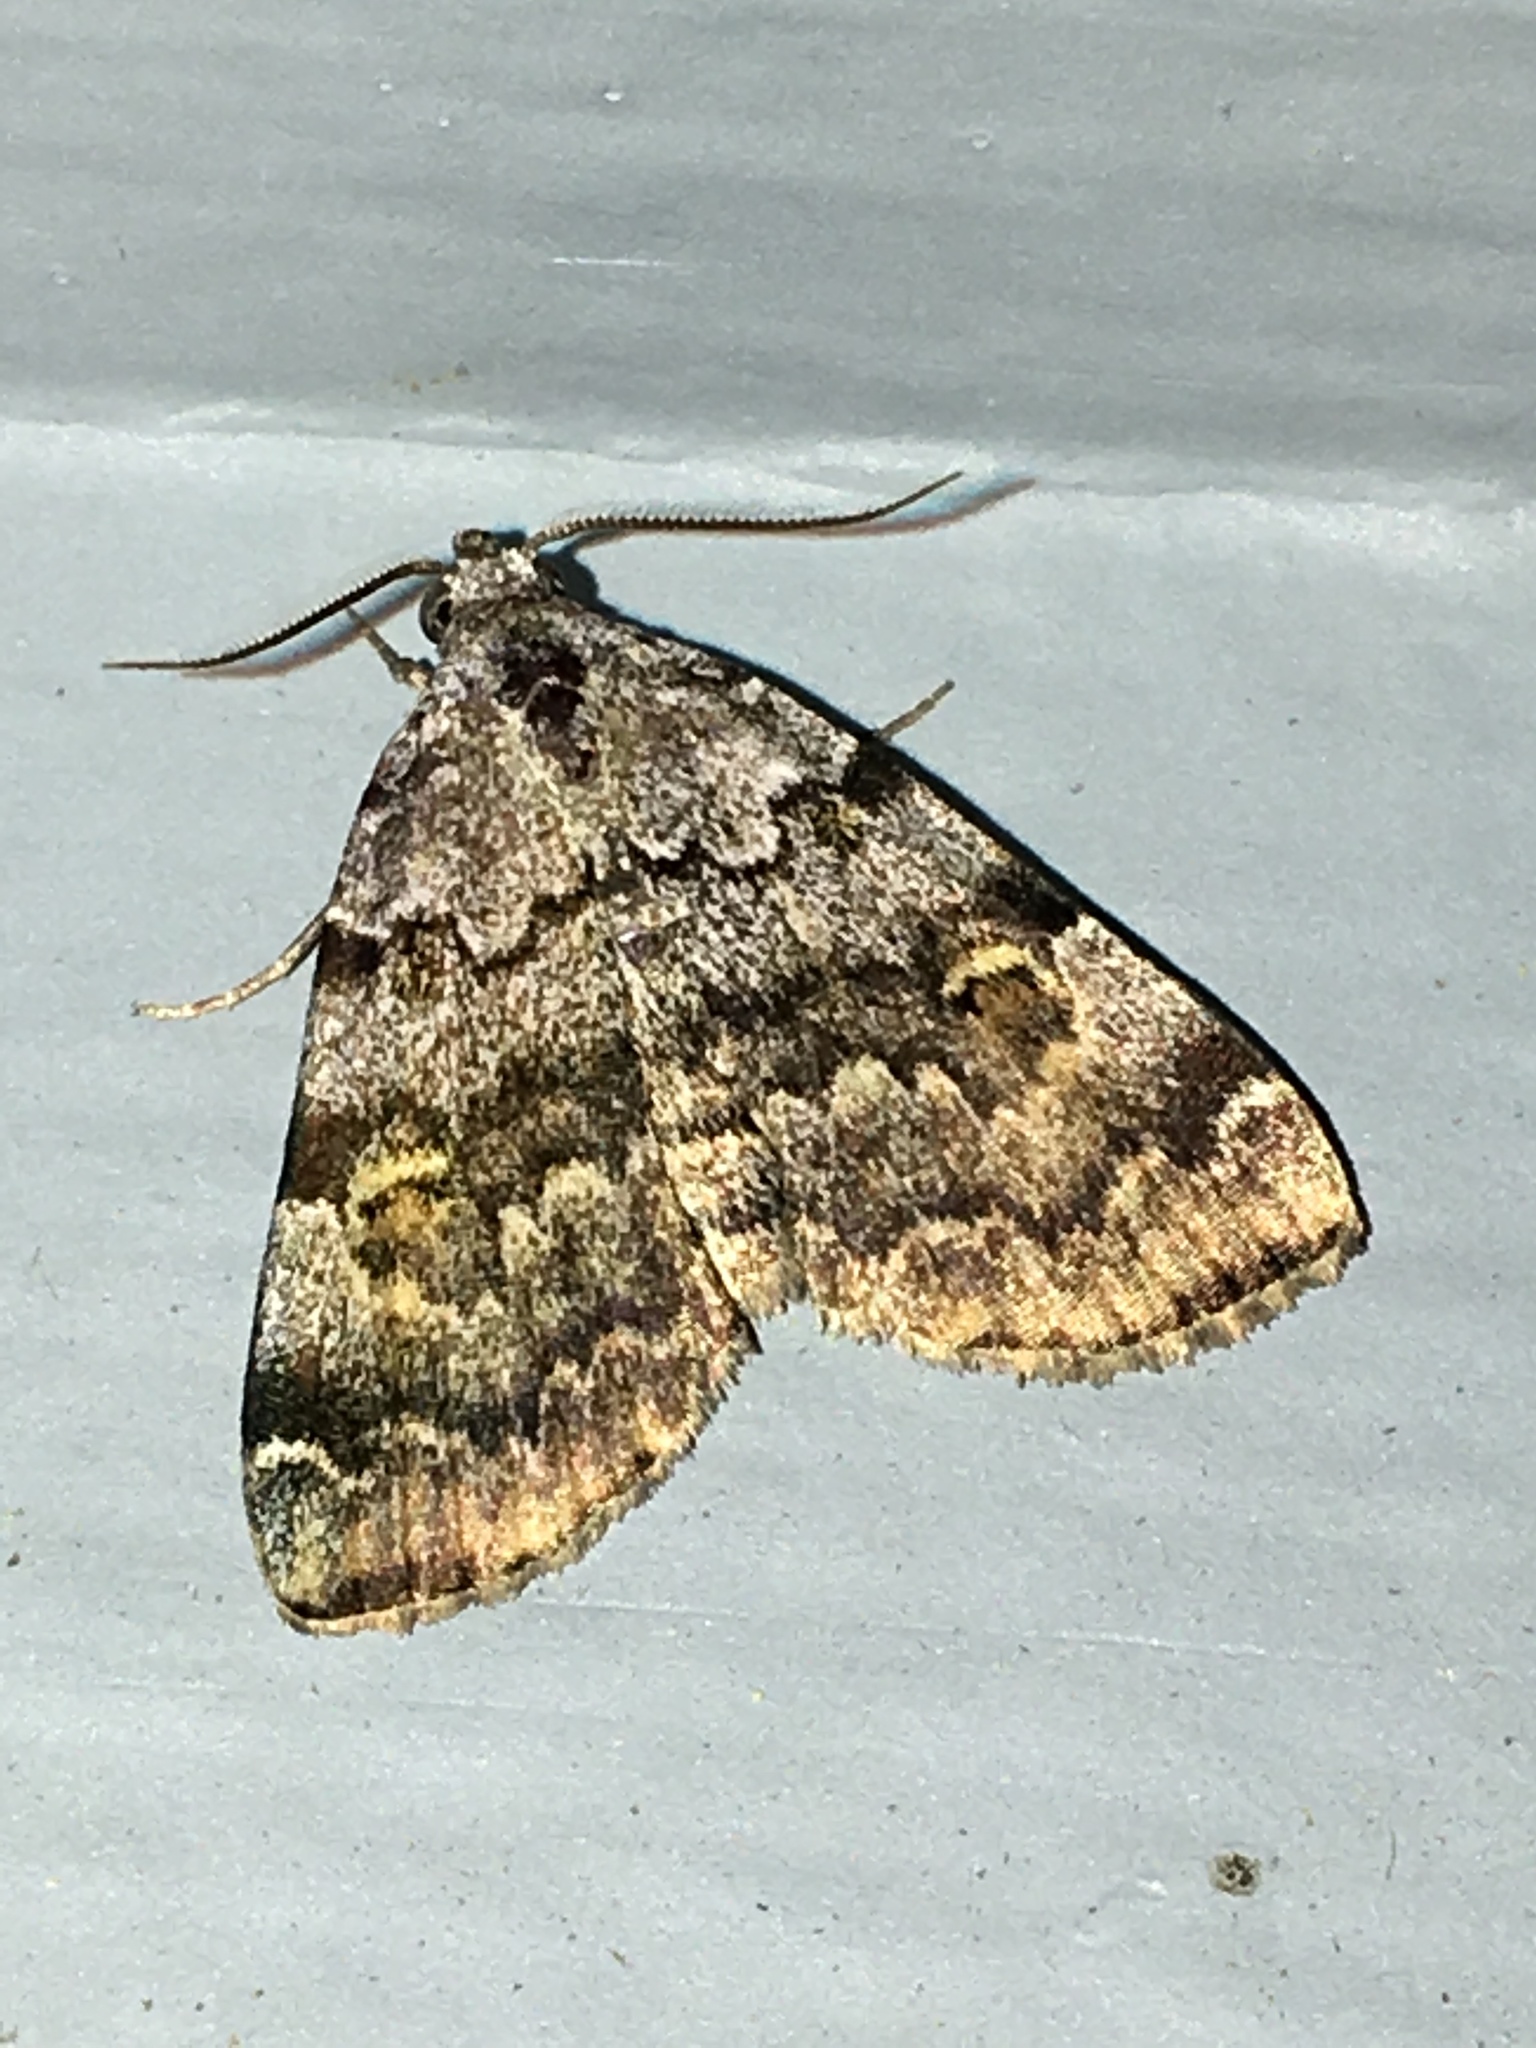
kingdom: Animalia
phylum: Arthropoda
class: Insecta
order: Lepidoptera
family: Erebidae
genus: Idia
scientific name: Idia americalis
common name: American idia moth
